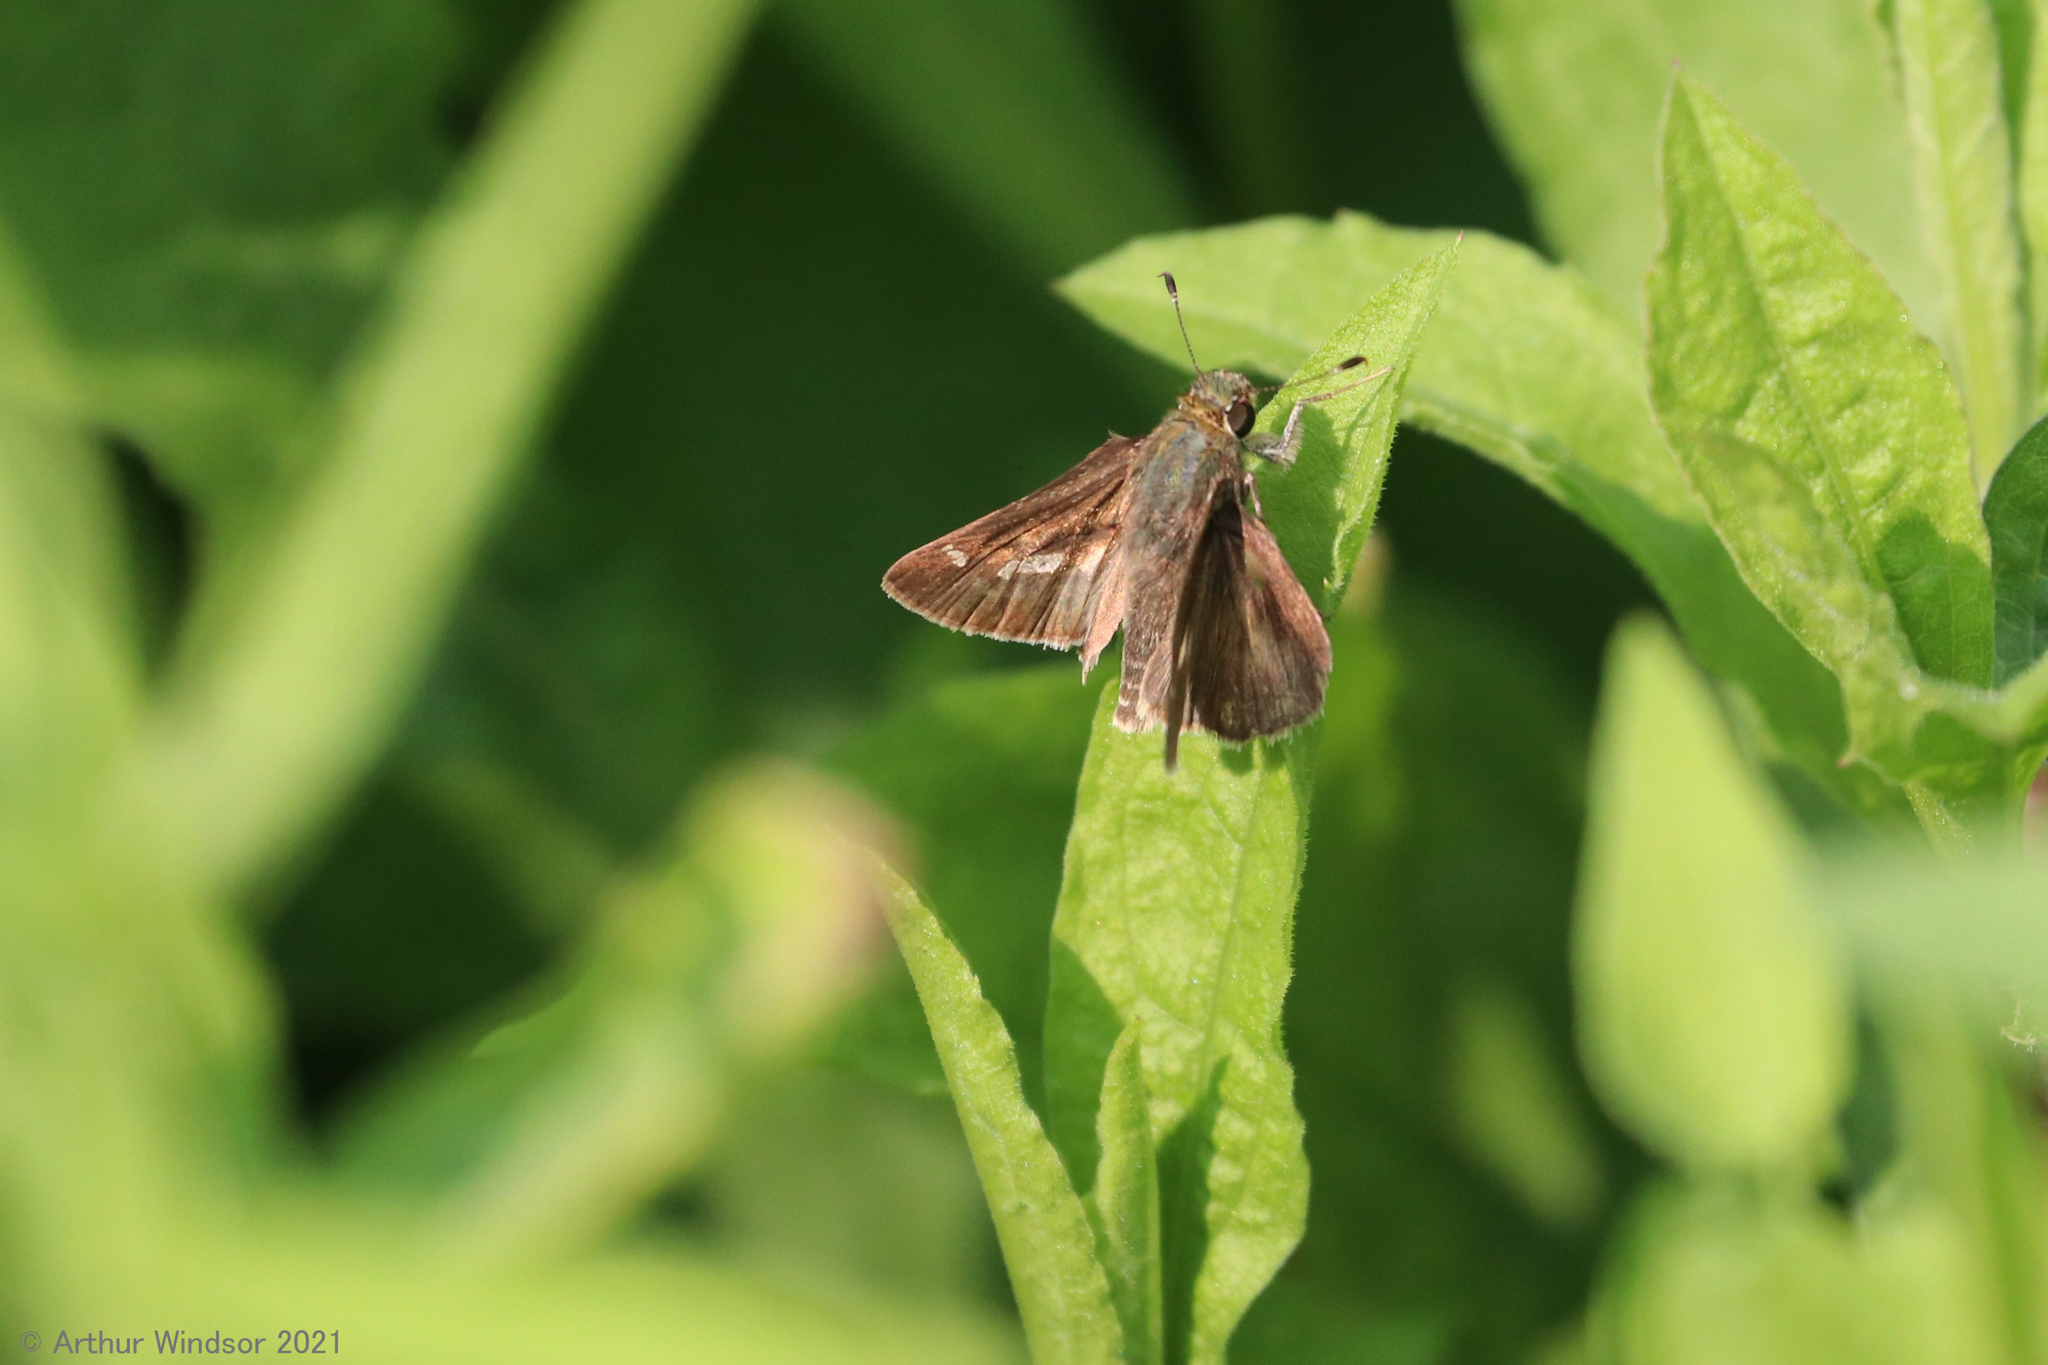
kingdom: Animalia
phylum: Arthropoda
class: Insecta
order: Lepidoptera
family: Hesperiidae
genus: Vernia
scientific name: Vernia verna
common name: Little glassywing
